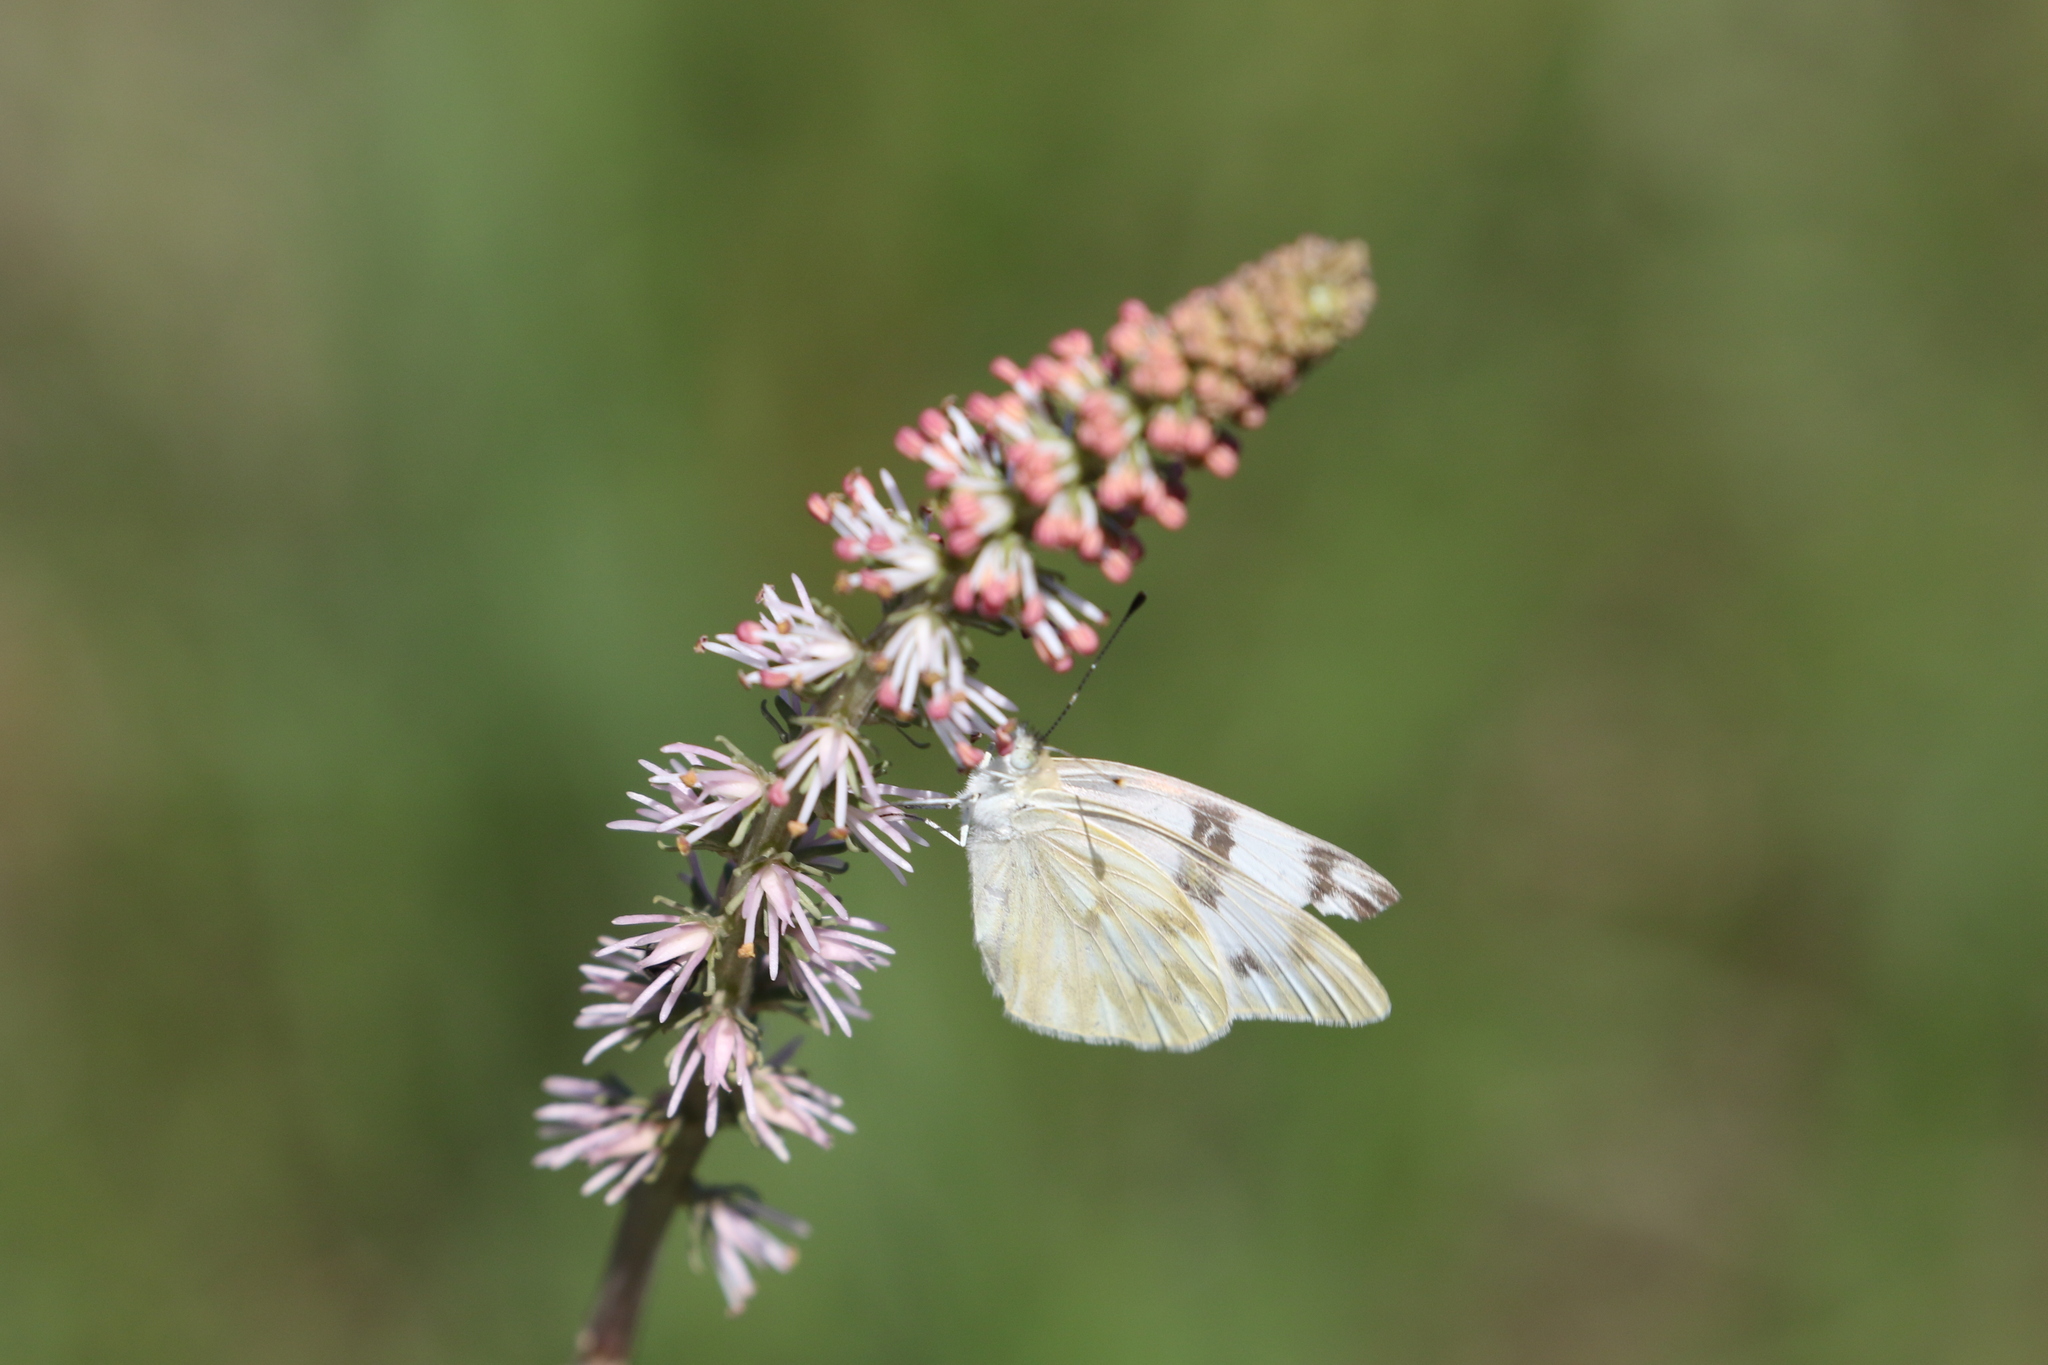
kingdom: Plantae
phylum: Tracheophyta
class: Liliopsida
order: Liliales
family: Melanthiaceae
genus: Schoenocaulon
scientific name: Schoenocaulon texanum
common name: Texas feather-shank
